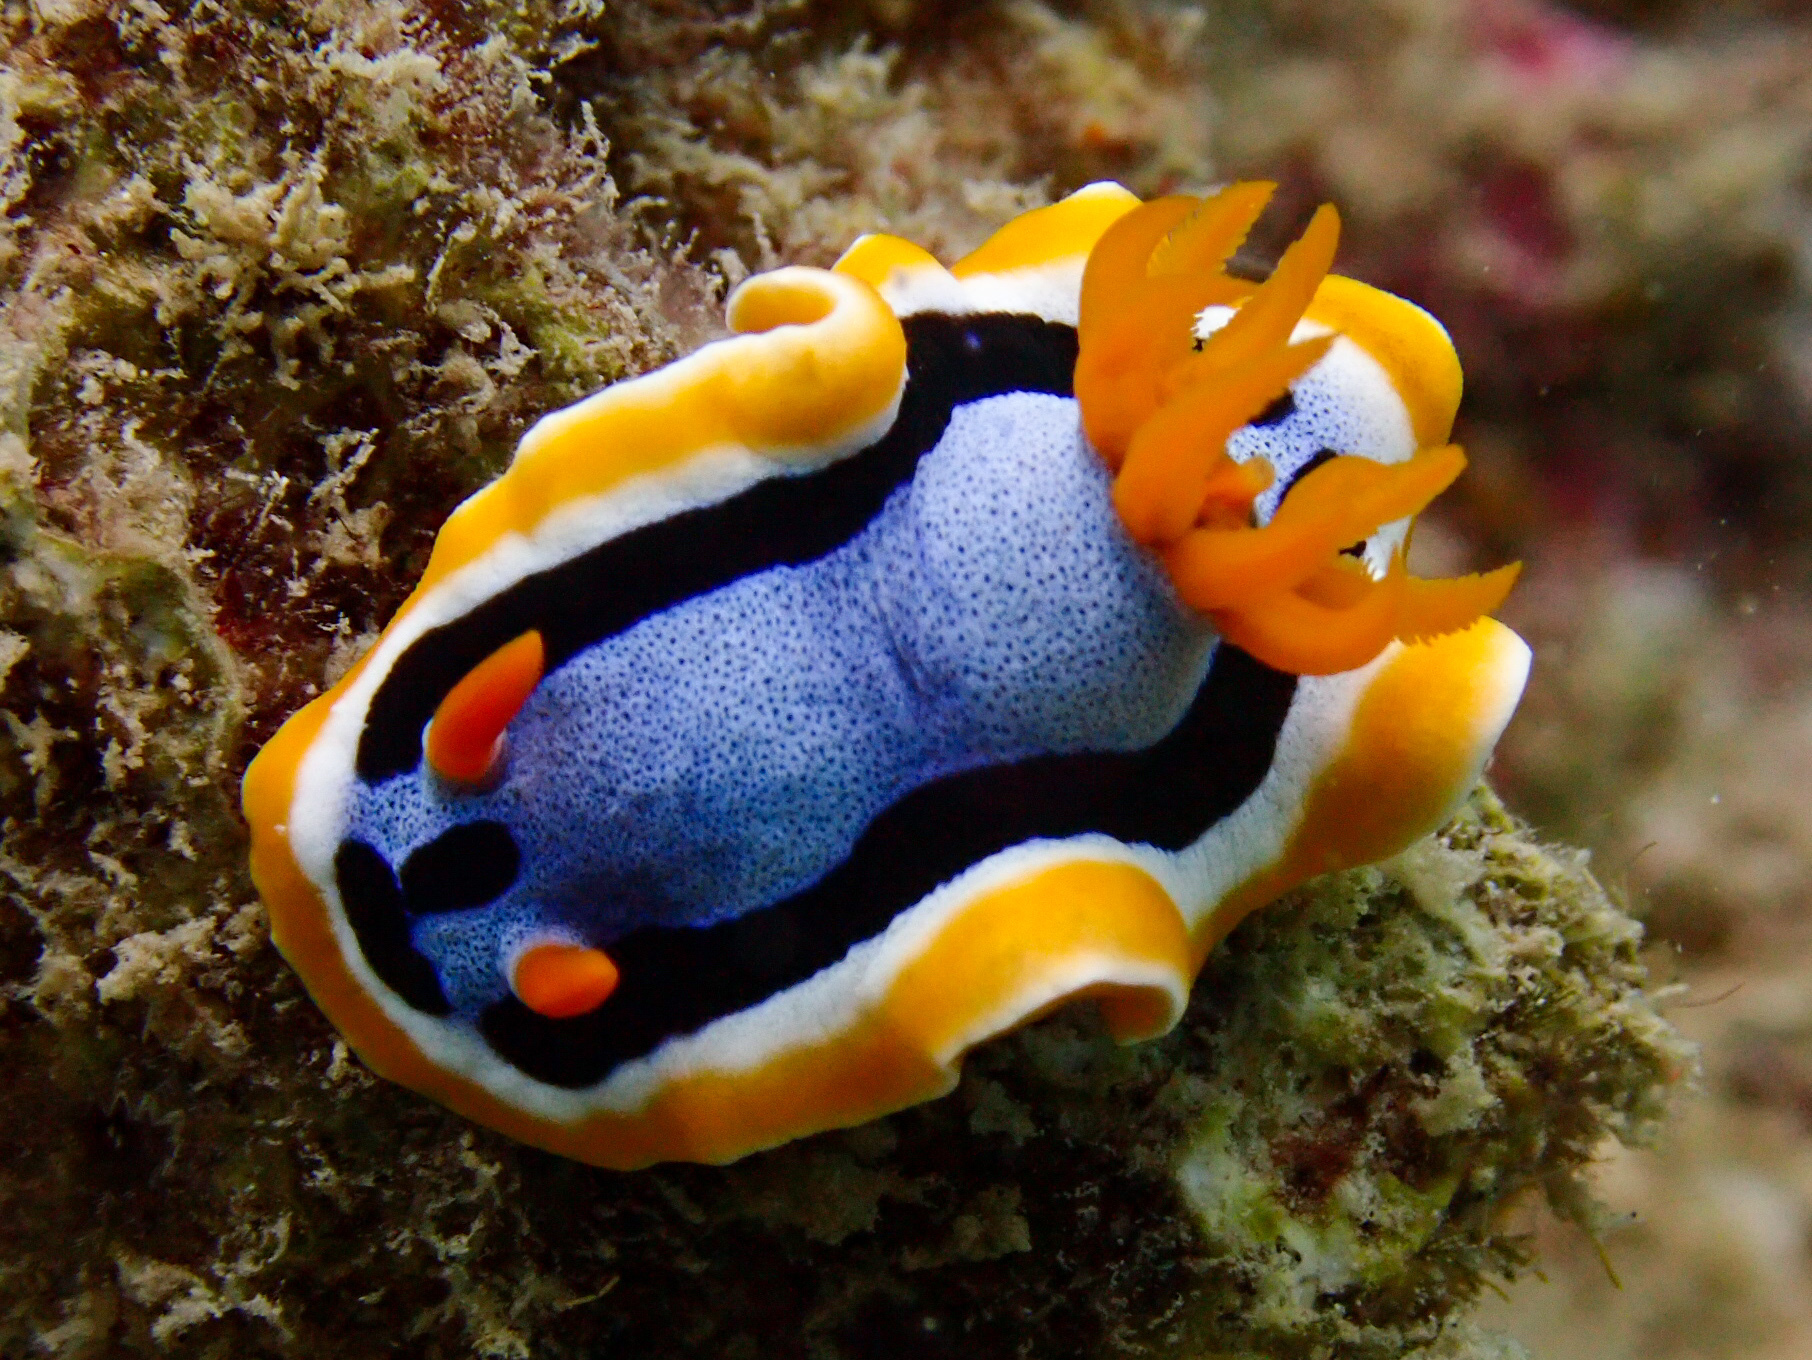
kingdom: Animalia
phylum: Mollusca
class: Gastropoda
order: Nudibranchia
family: Chromodorididae
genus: Chromodoris
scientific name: Chromodoris annae
